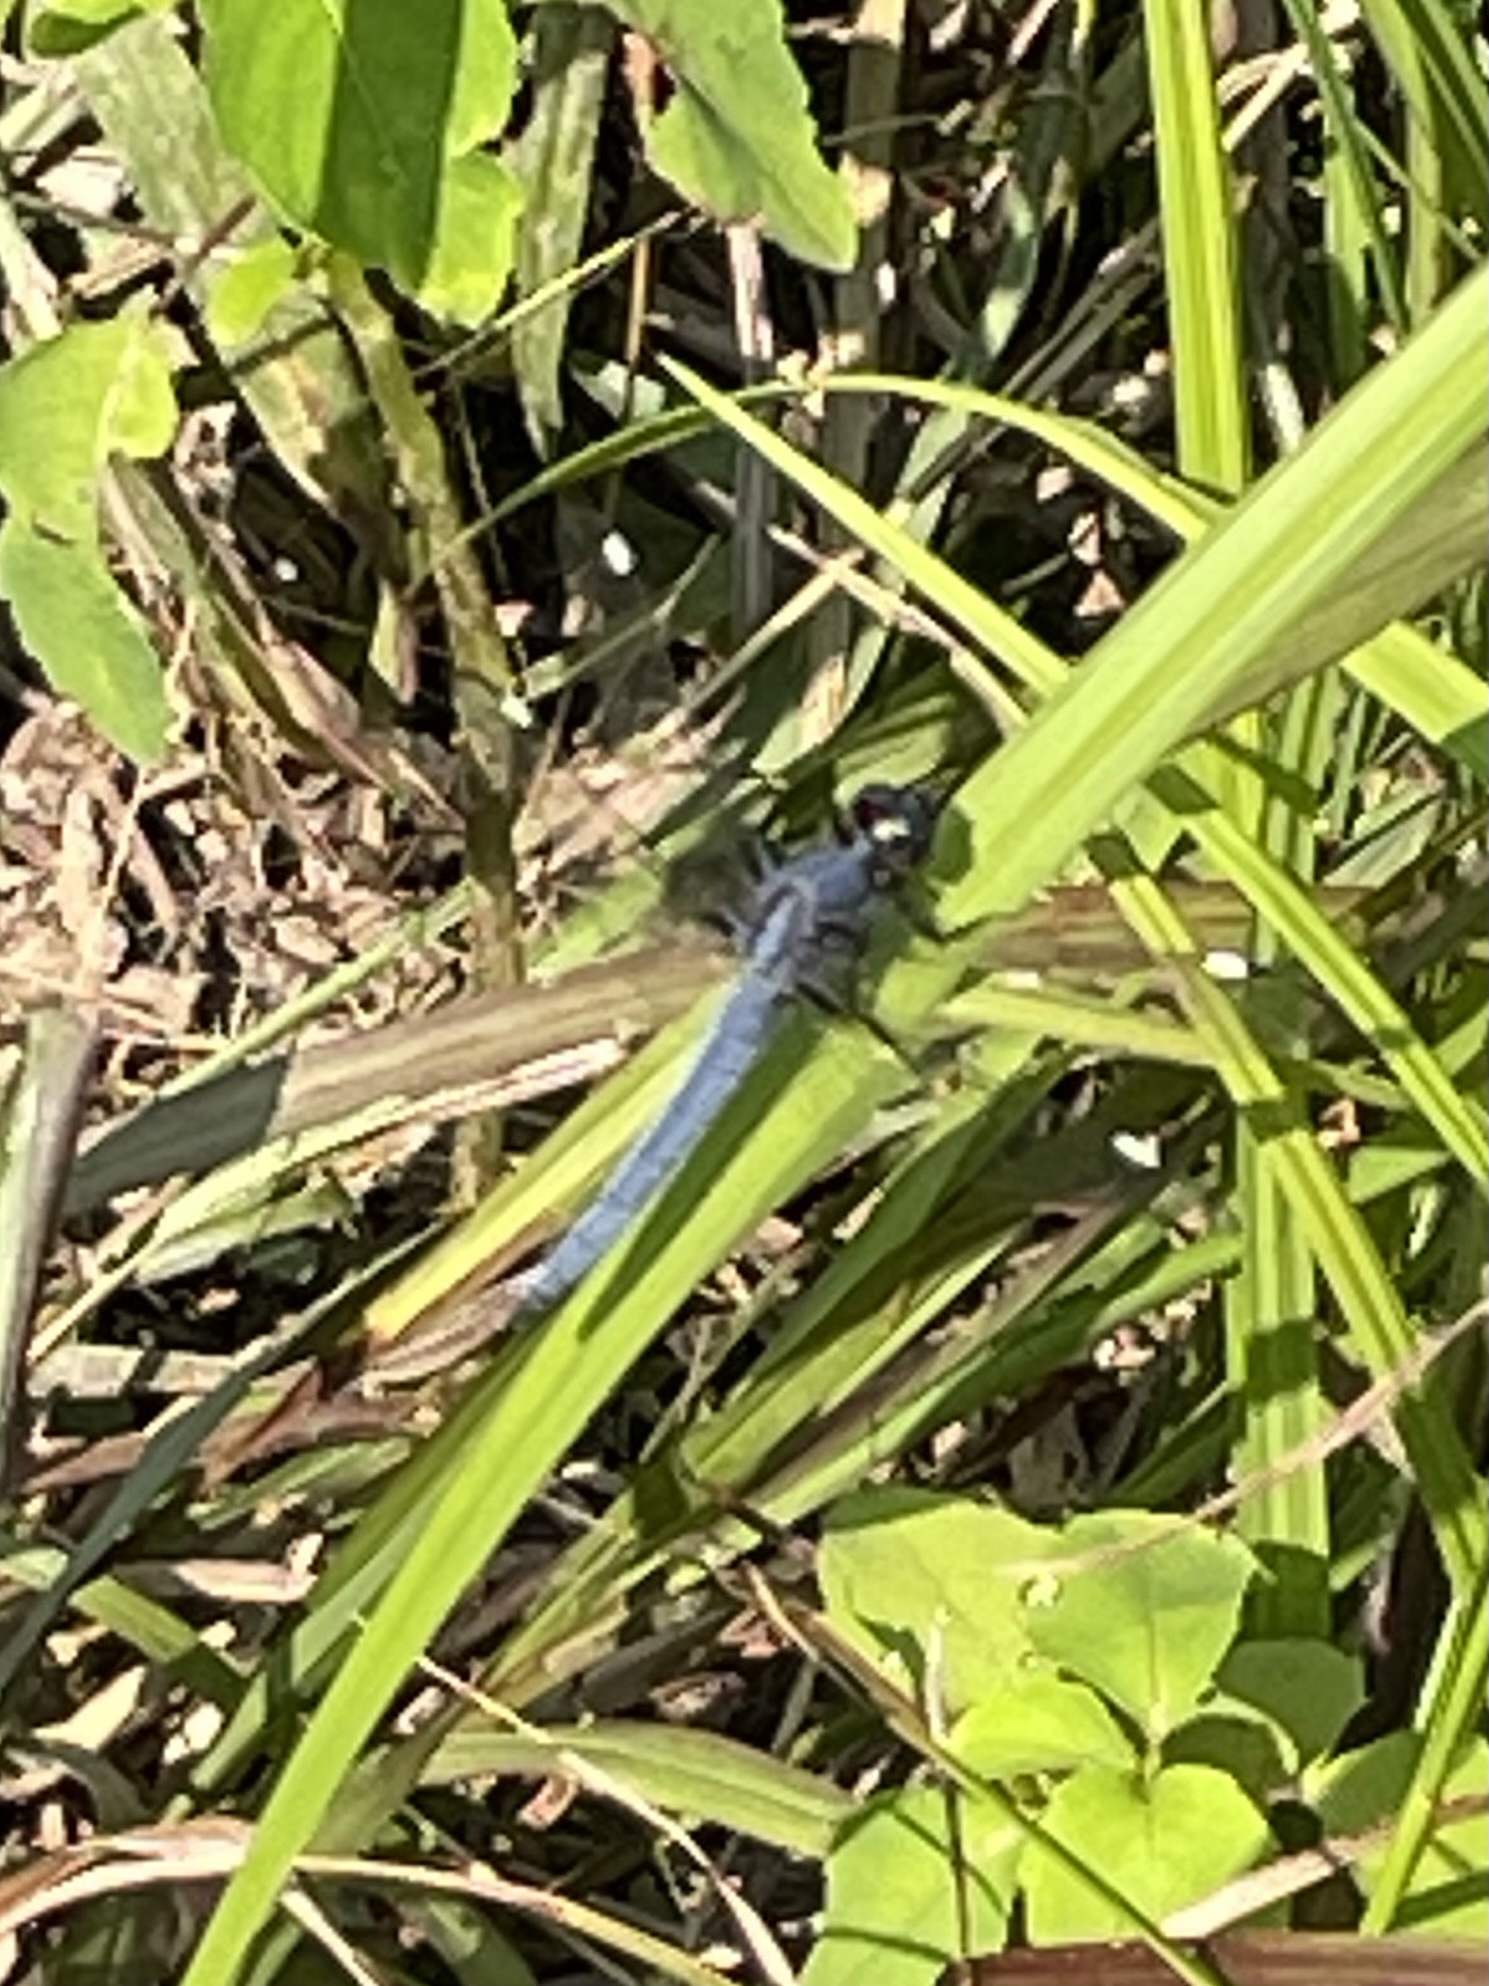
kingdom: Animalia
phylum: Arthropoda
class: Insecta
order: Odonata
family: Libellulidae
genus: Libellula
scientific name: Libellula cyanea
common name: Spangled skimmer
